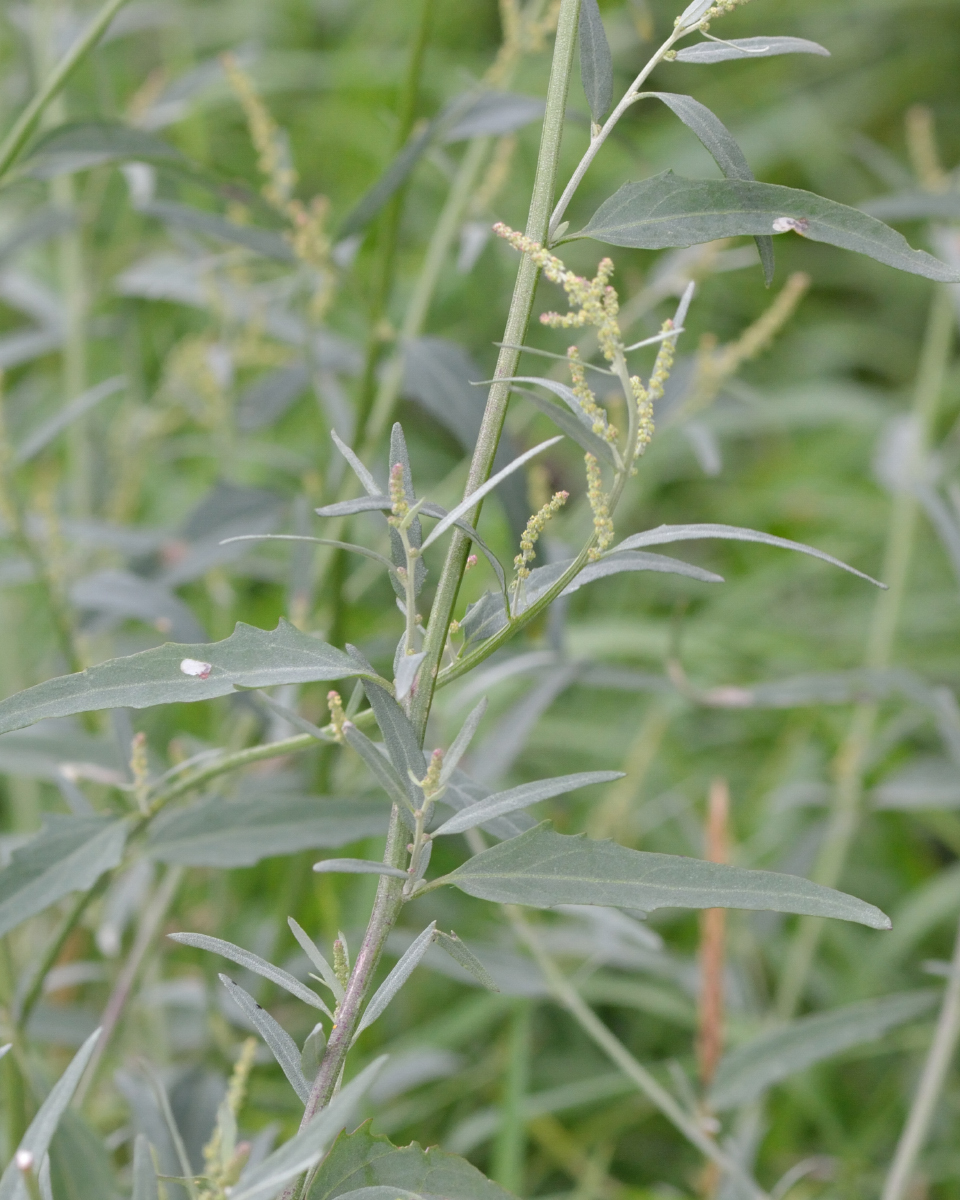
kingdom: Plantae
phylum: Tracheophyta
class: Magnoliopsida
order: Caryophyllales
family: Amaranthaceae
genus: Atriplex
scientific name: Atriplex oblongifolia
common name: Oblongleaf orache
